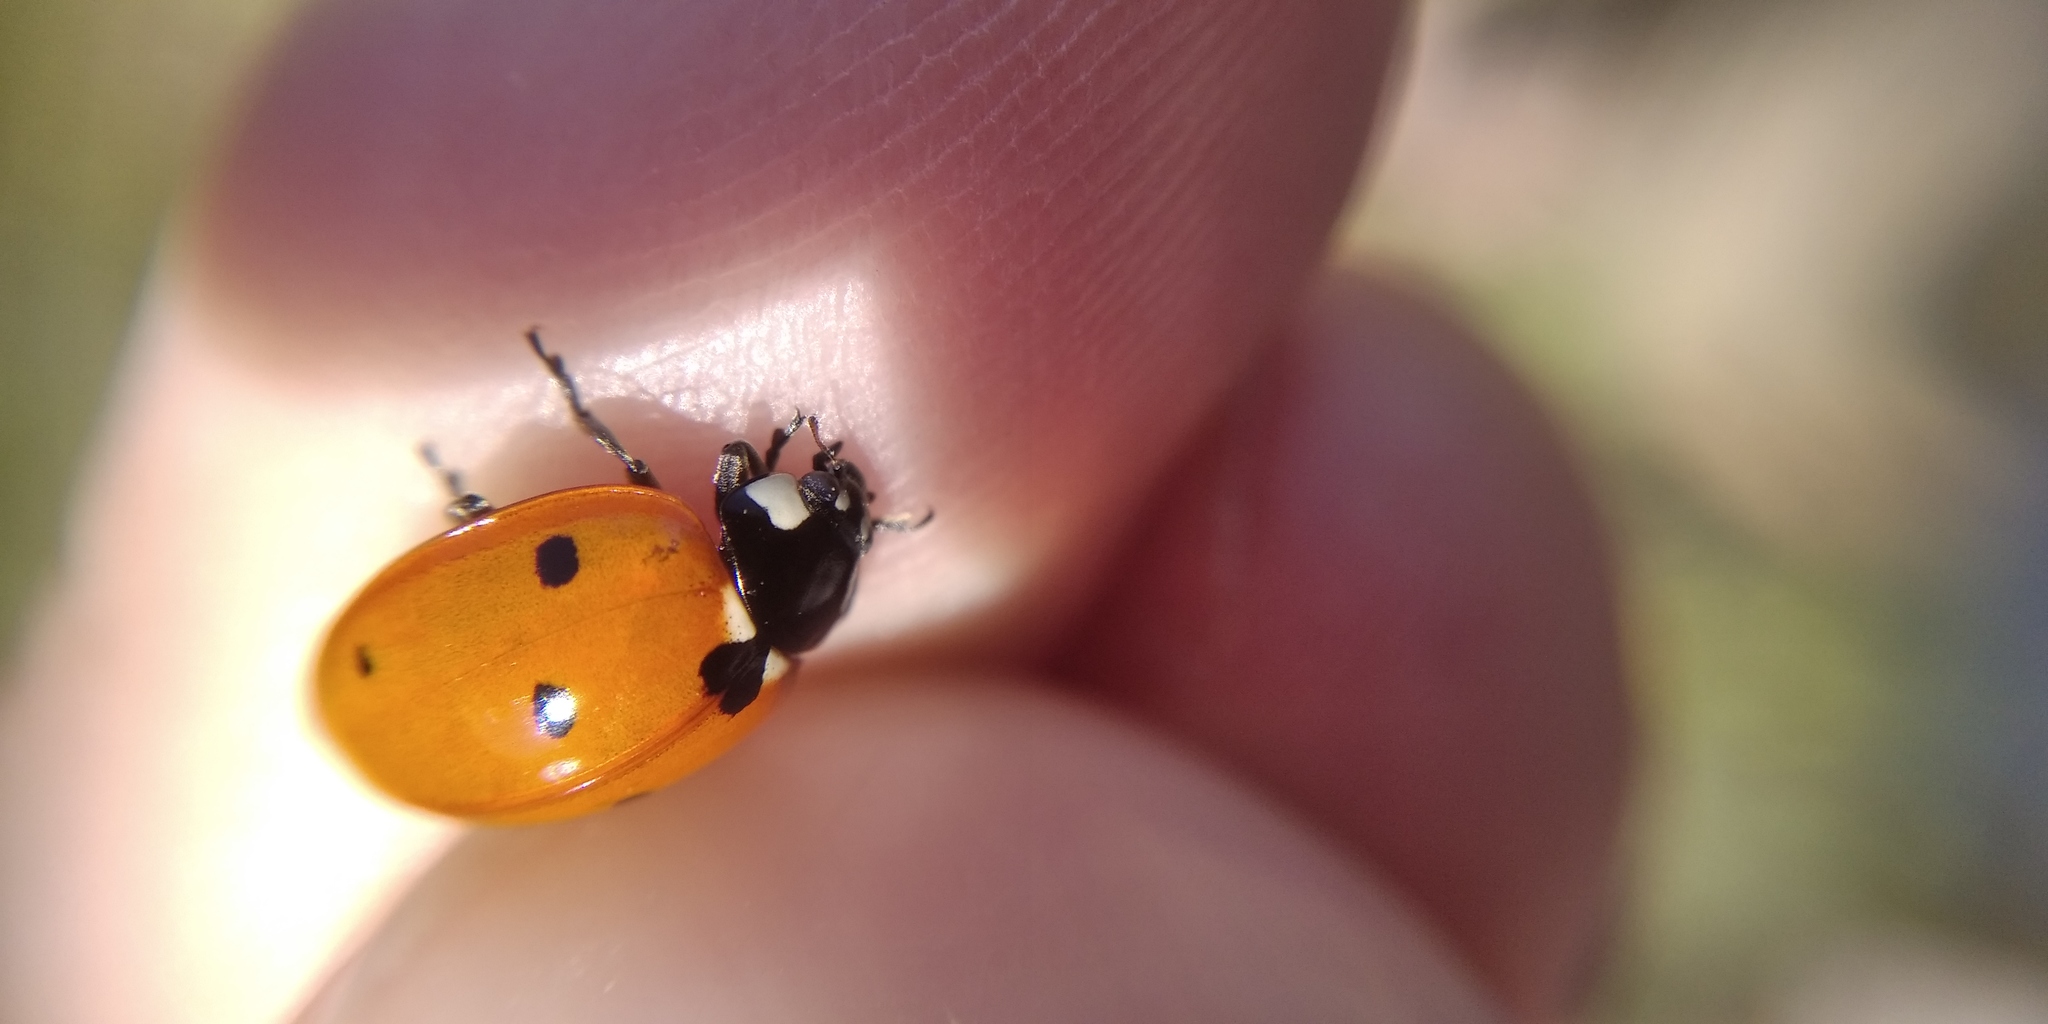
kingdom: Animalia
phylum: Arthropoda
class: Insecta
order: Coleoptera
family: Coccinellidae
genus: Coccinella
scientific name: Coccinella septempunctata
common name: Sevenspotted lady beetle
